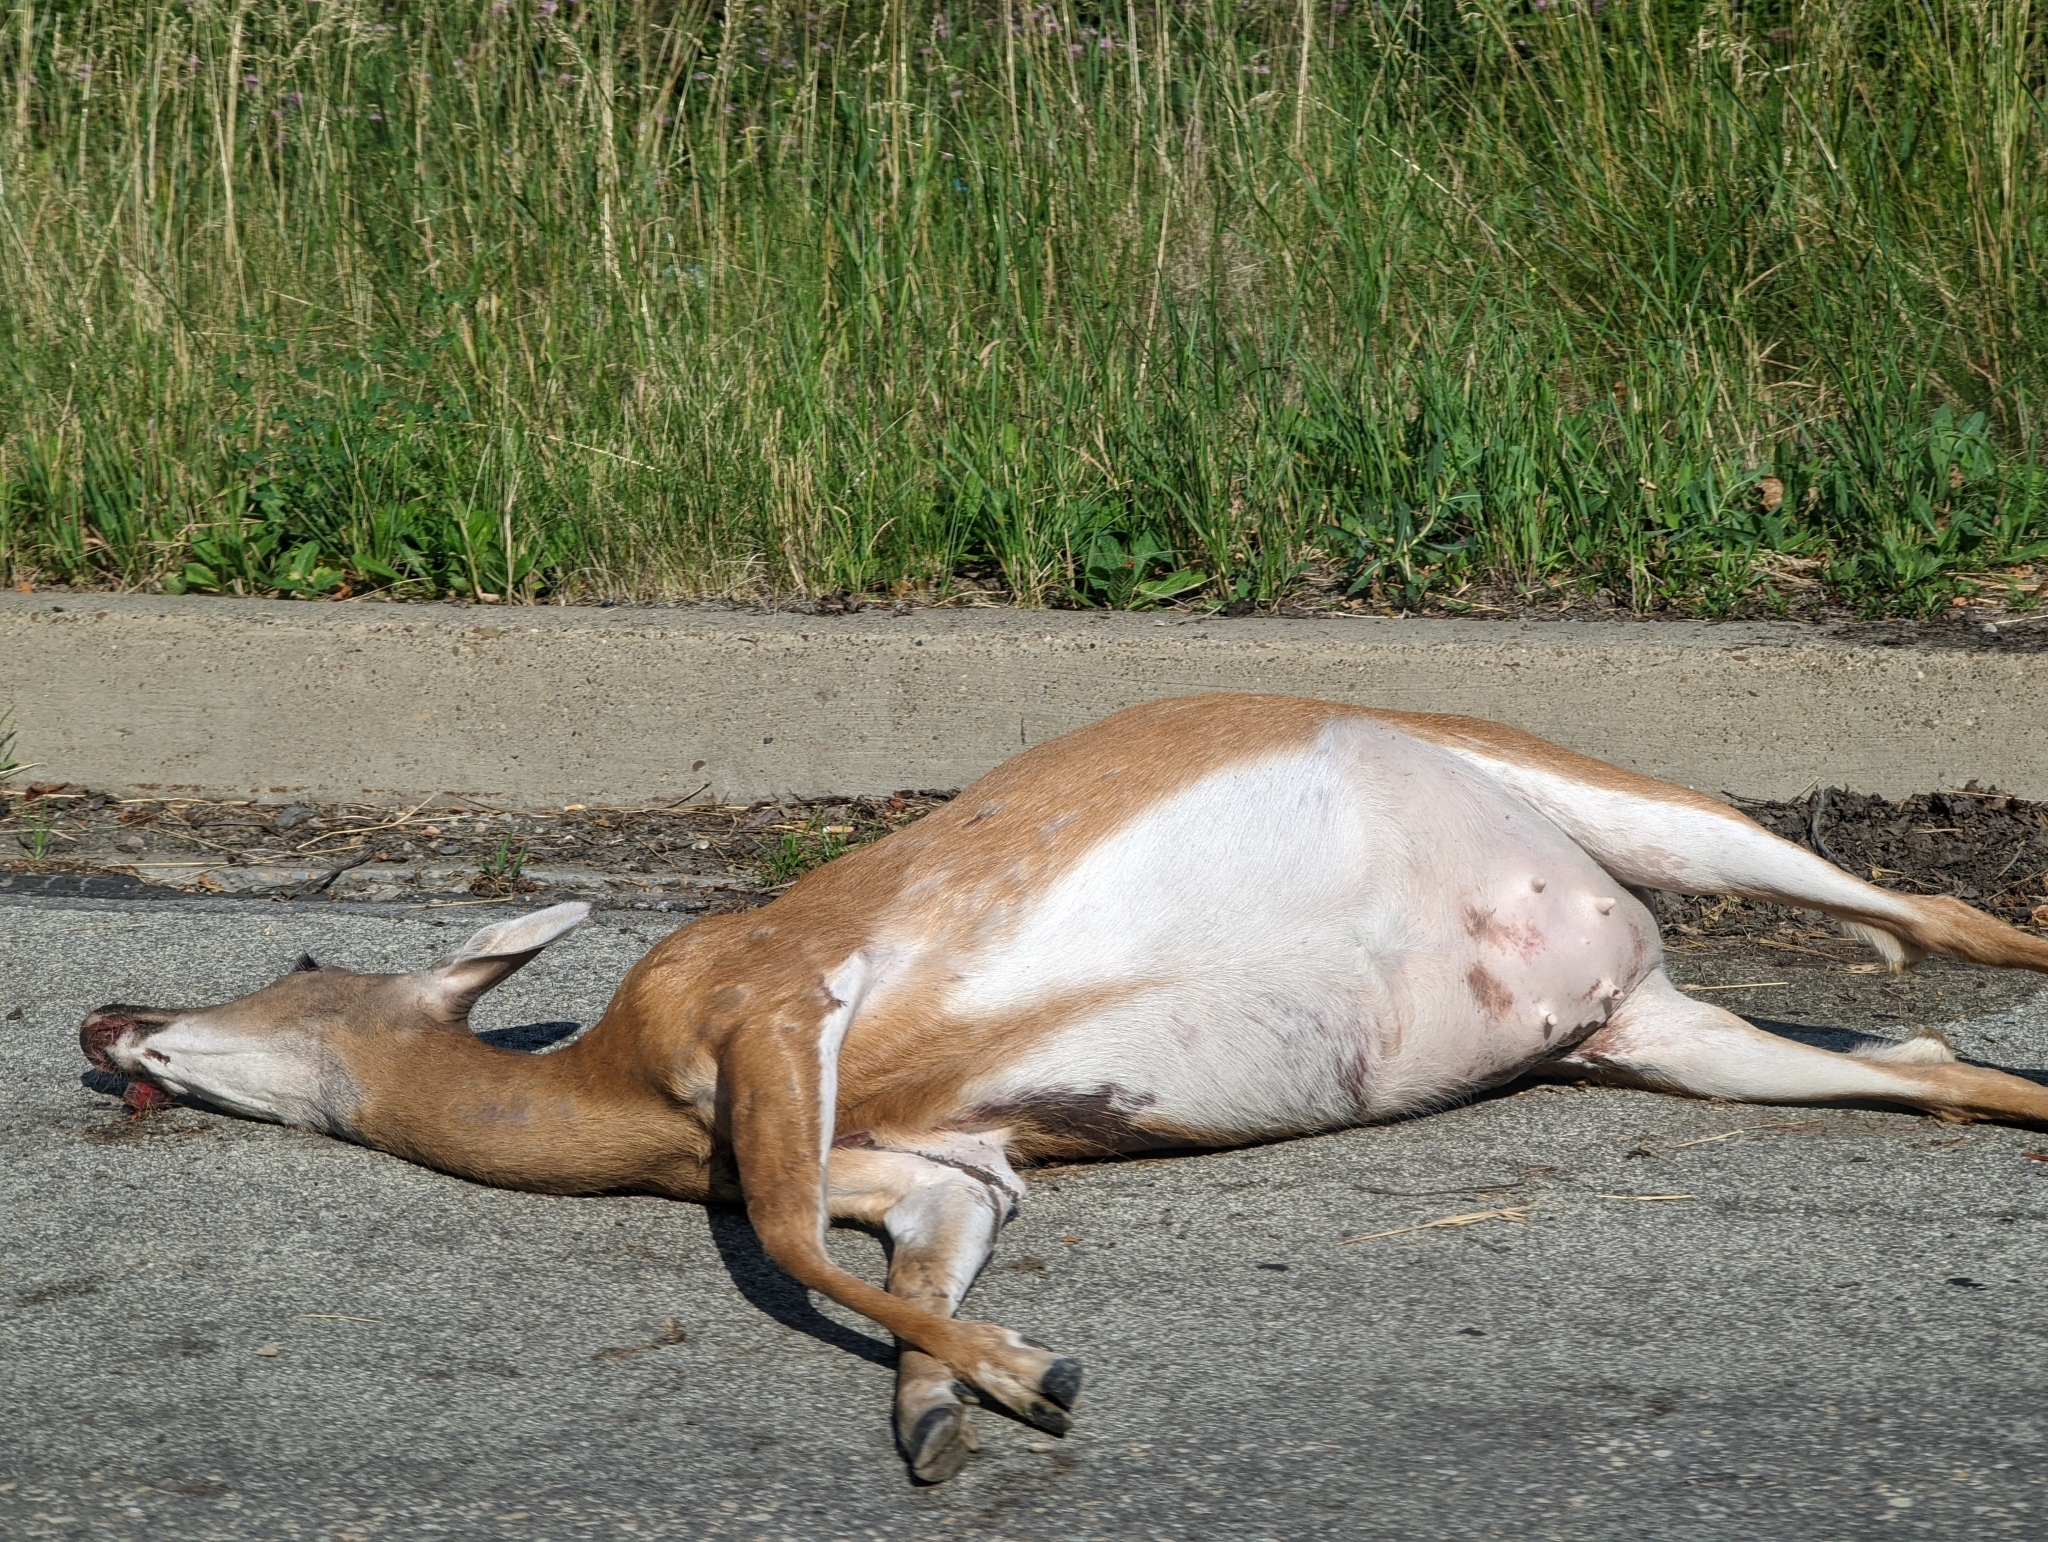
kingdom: Animalia
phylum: Chordata
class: Mammalia
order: Artiodactyla
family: Cervidae
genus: Odocoileus
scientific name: Odocoileus virginianus
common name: White-tailed deer
